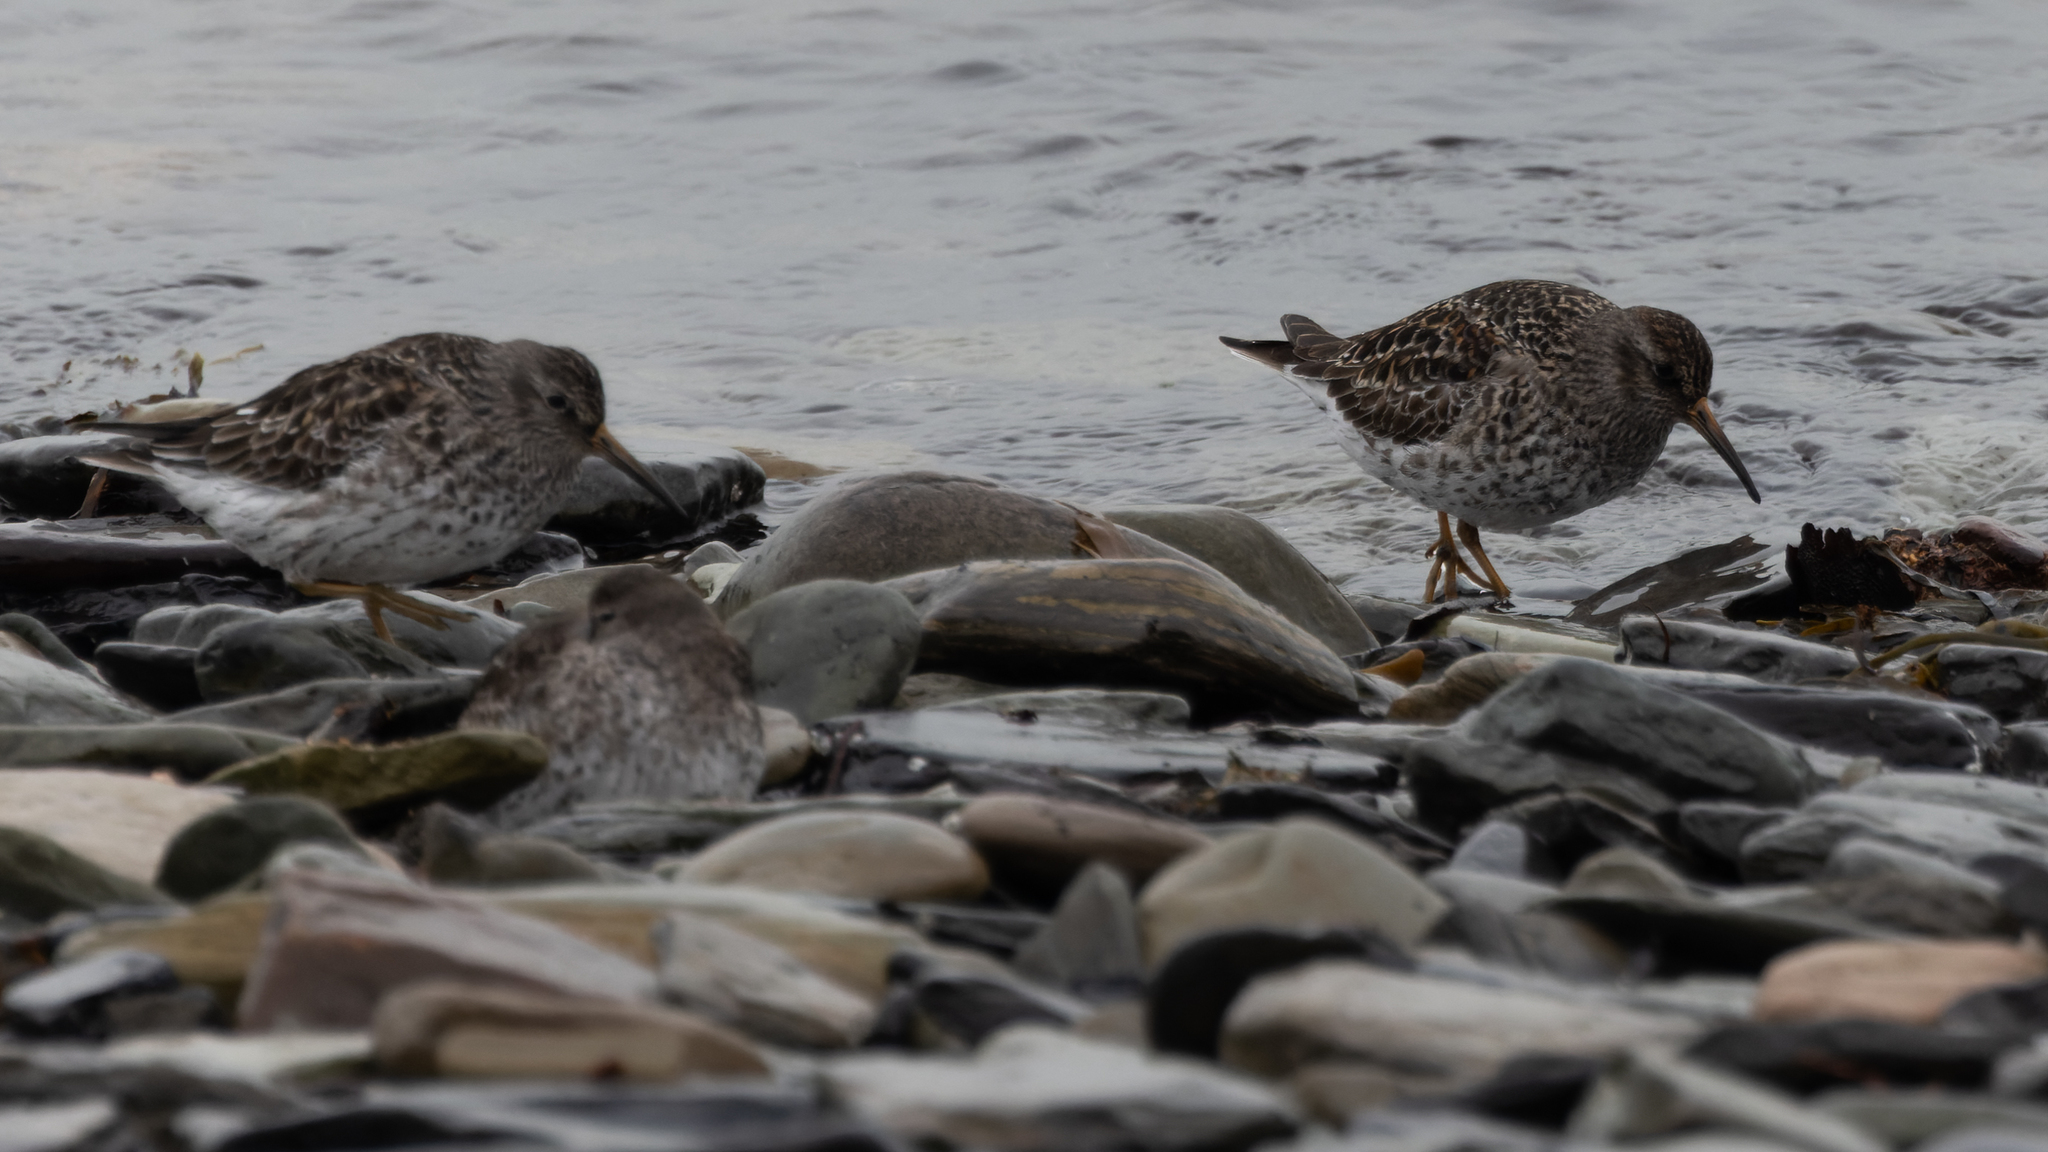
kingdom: Animalia
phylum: Chordata
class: Aves
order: Charadriiformes
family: Scolopacidae
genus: Calidris
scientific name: Calidris maritima
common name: Purple sandpiper
